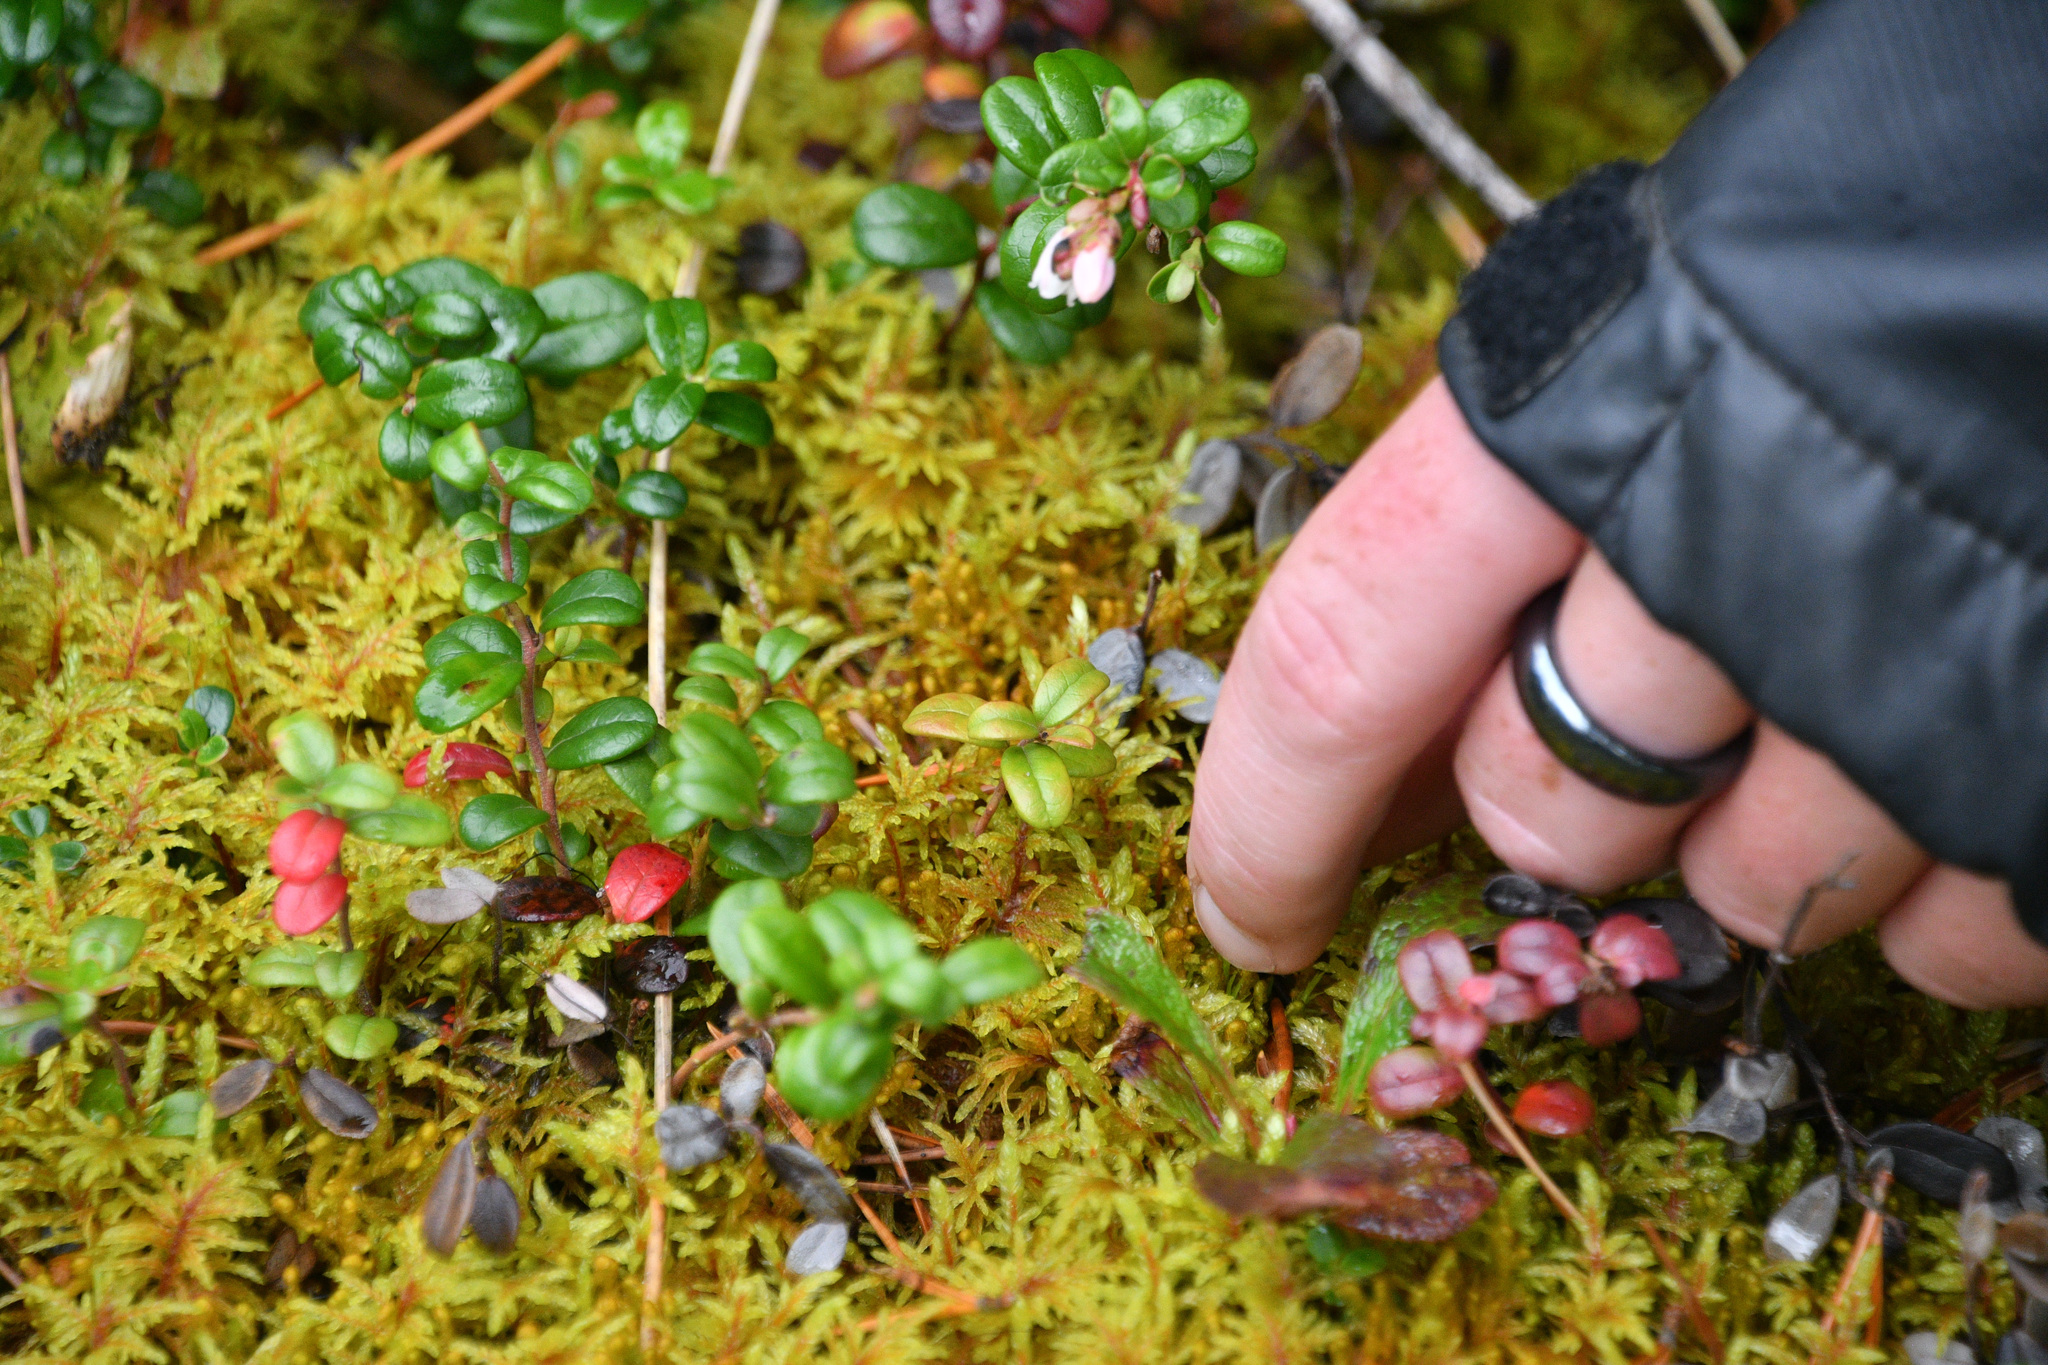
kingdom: Plantae
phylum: Tracheophyta
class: Magnoliopsida
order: Ericales
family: Ericaceae
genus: Vaccinium
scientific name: Vaccinium vitis-idaea
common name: Cowberry
